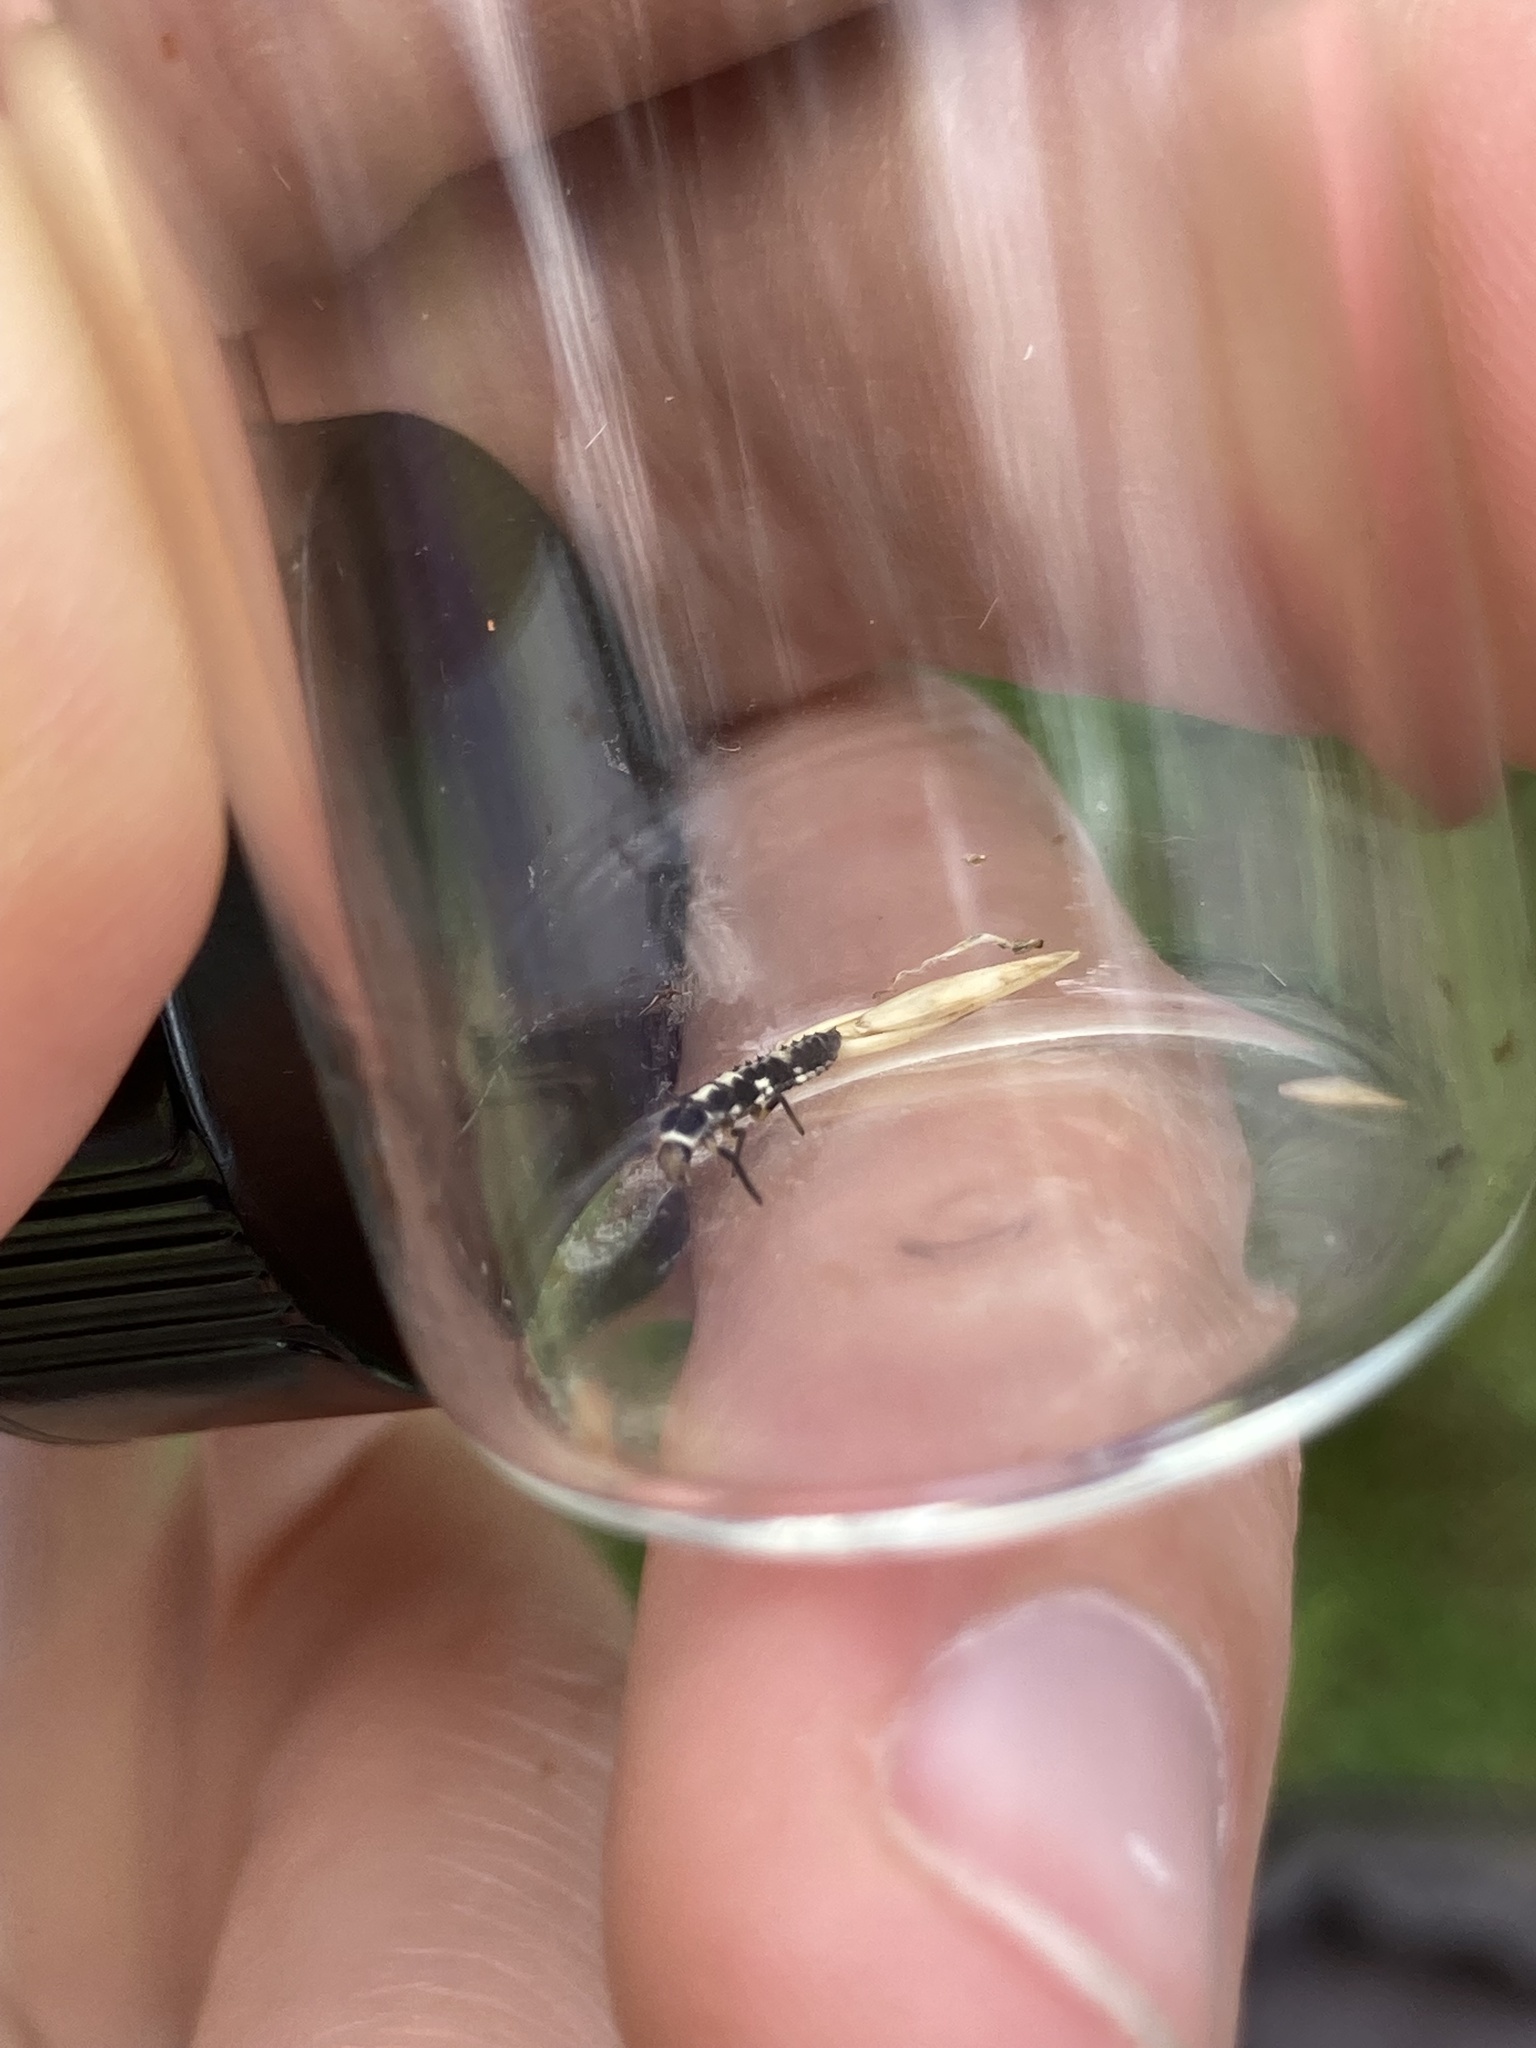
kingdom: Animalia
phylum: Arthropoda
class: Insecta
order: Coleoptera
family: Coccinellidae
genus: Propylaea
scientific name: Propylaea quatuordecimpunctata
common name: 14-spotted ladybird beetle
